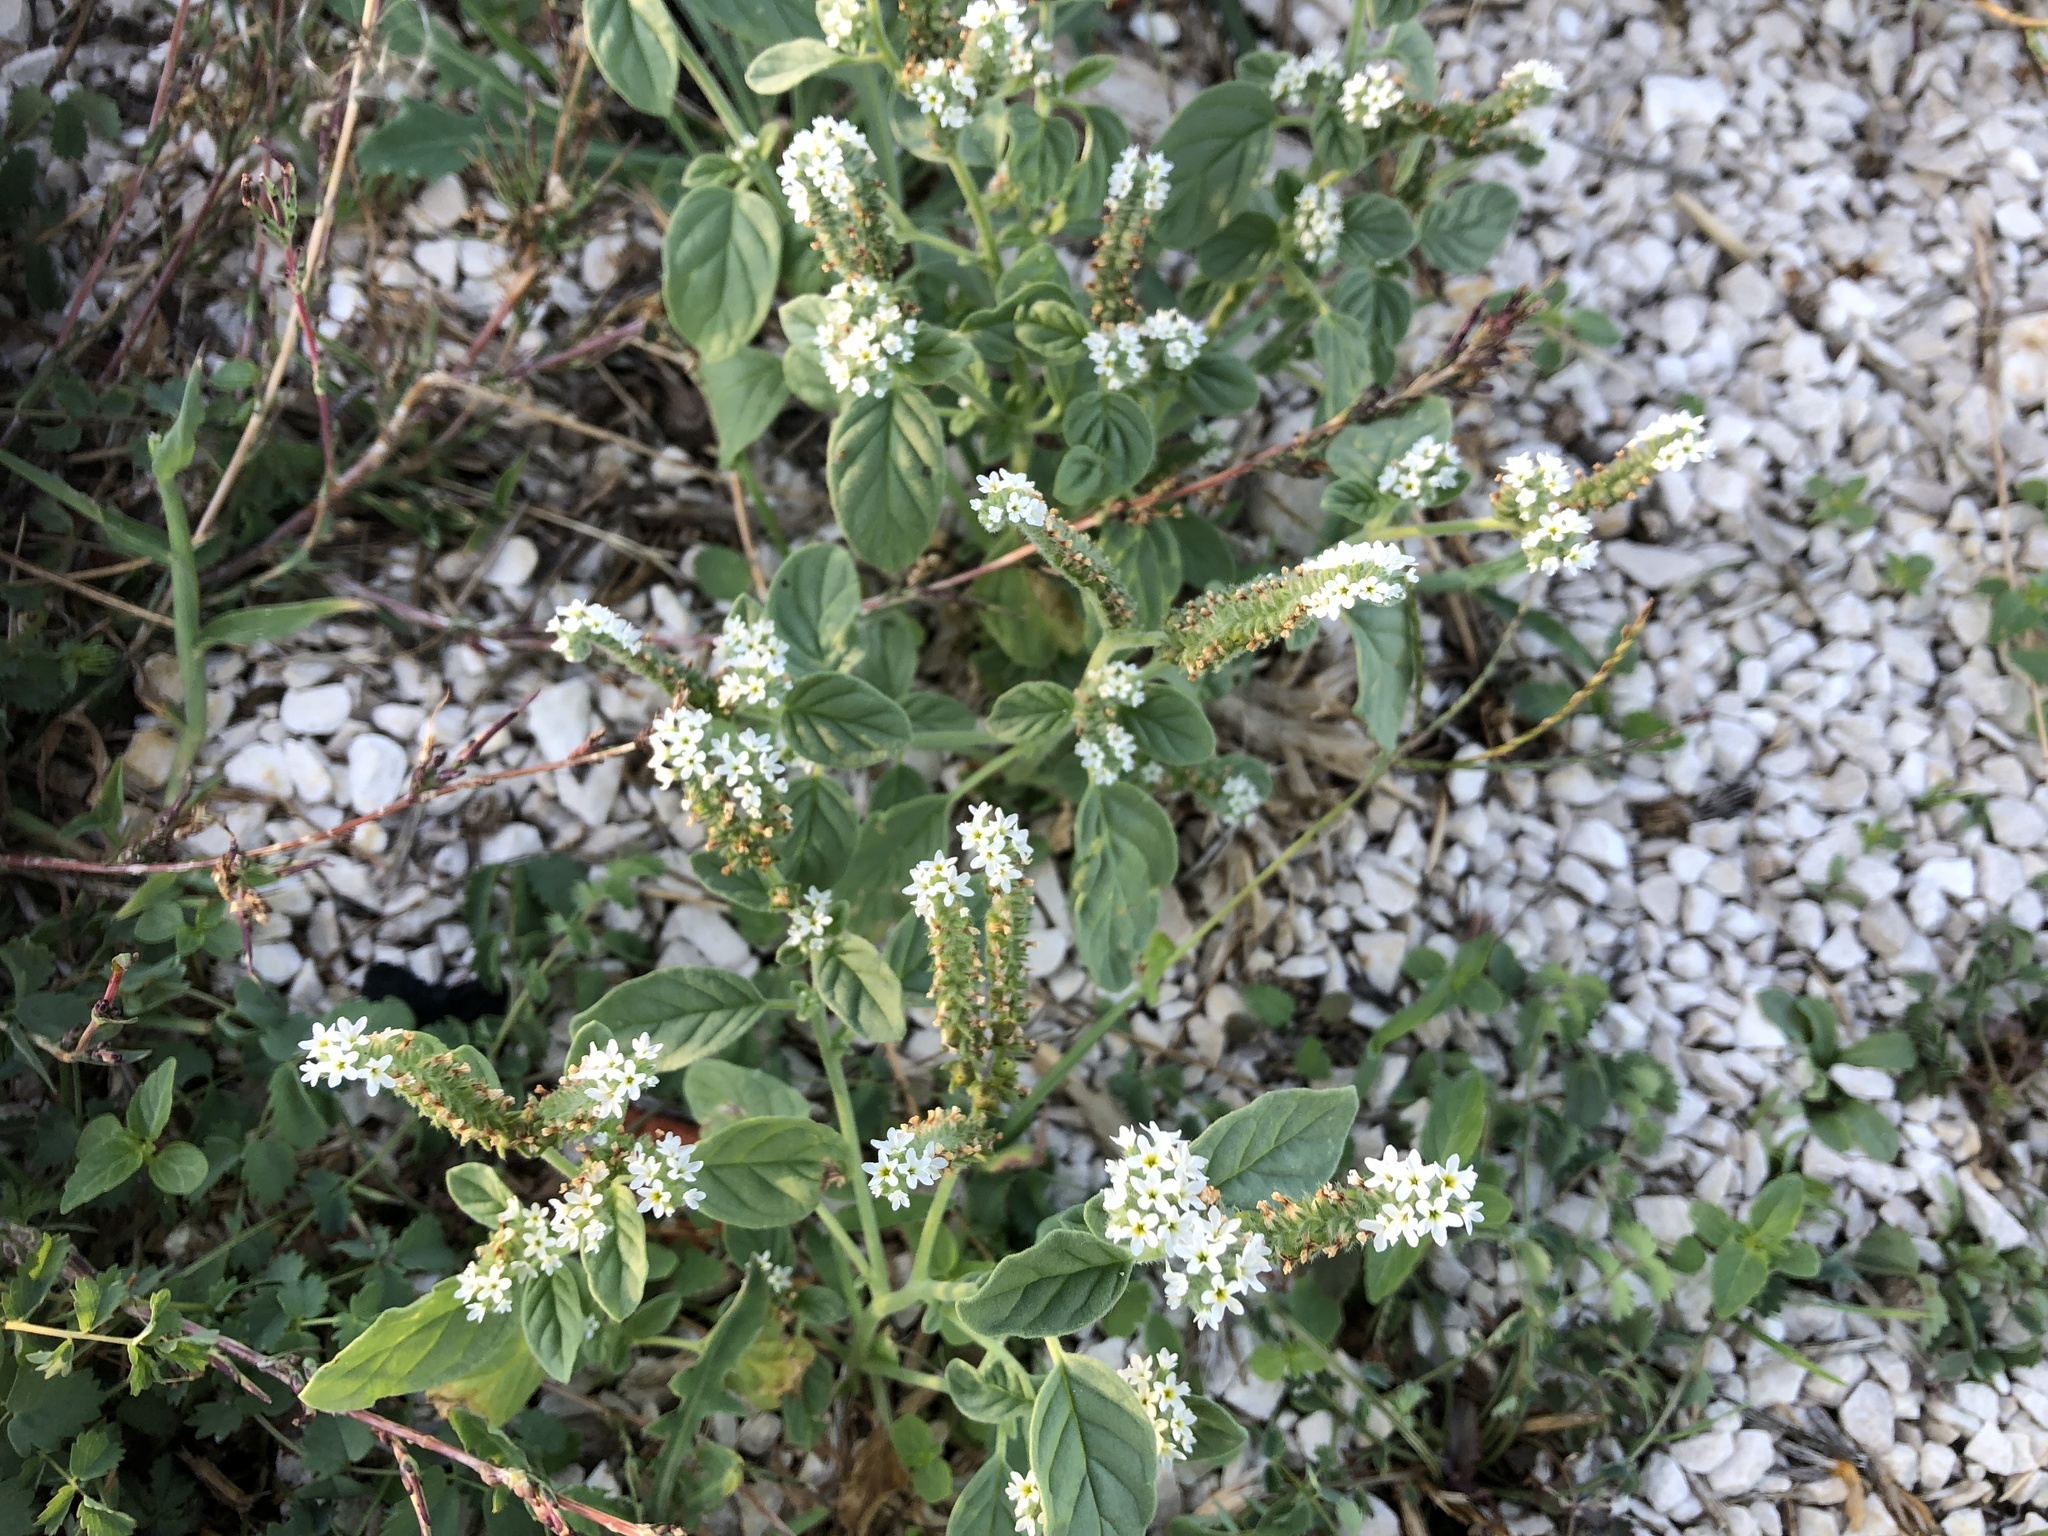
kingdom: Plantae
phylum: Tracheophyta
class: Magnoliopsida
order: Boraginales
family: Heliotropiaceae
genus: Heliotropium
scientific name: Heliotropium europaeum
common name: European heliotrope
